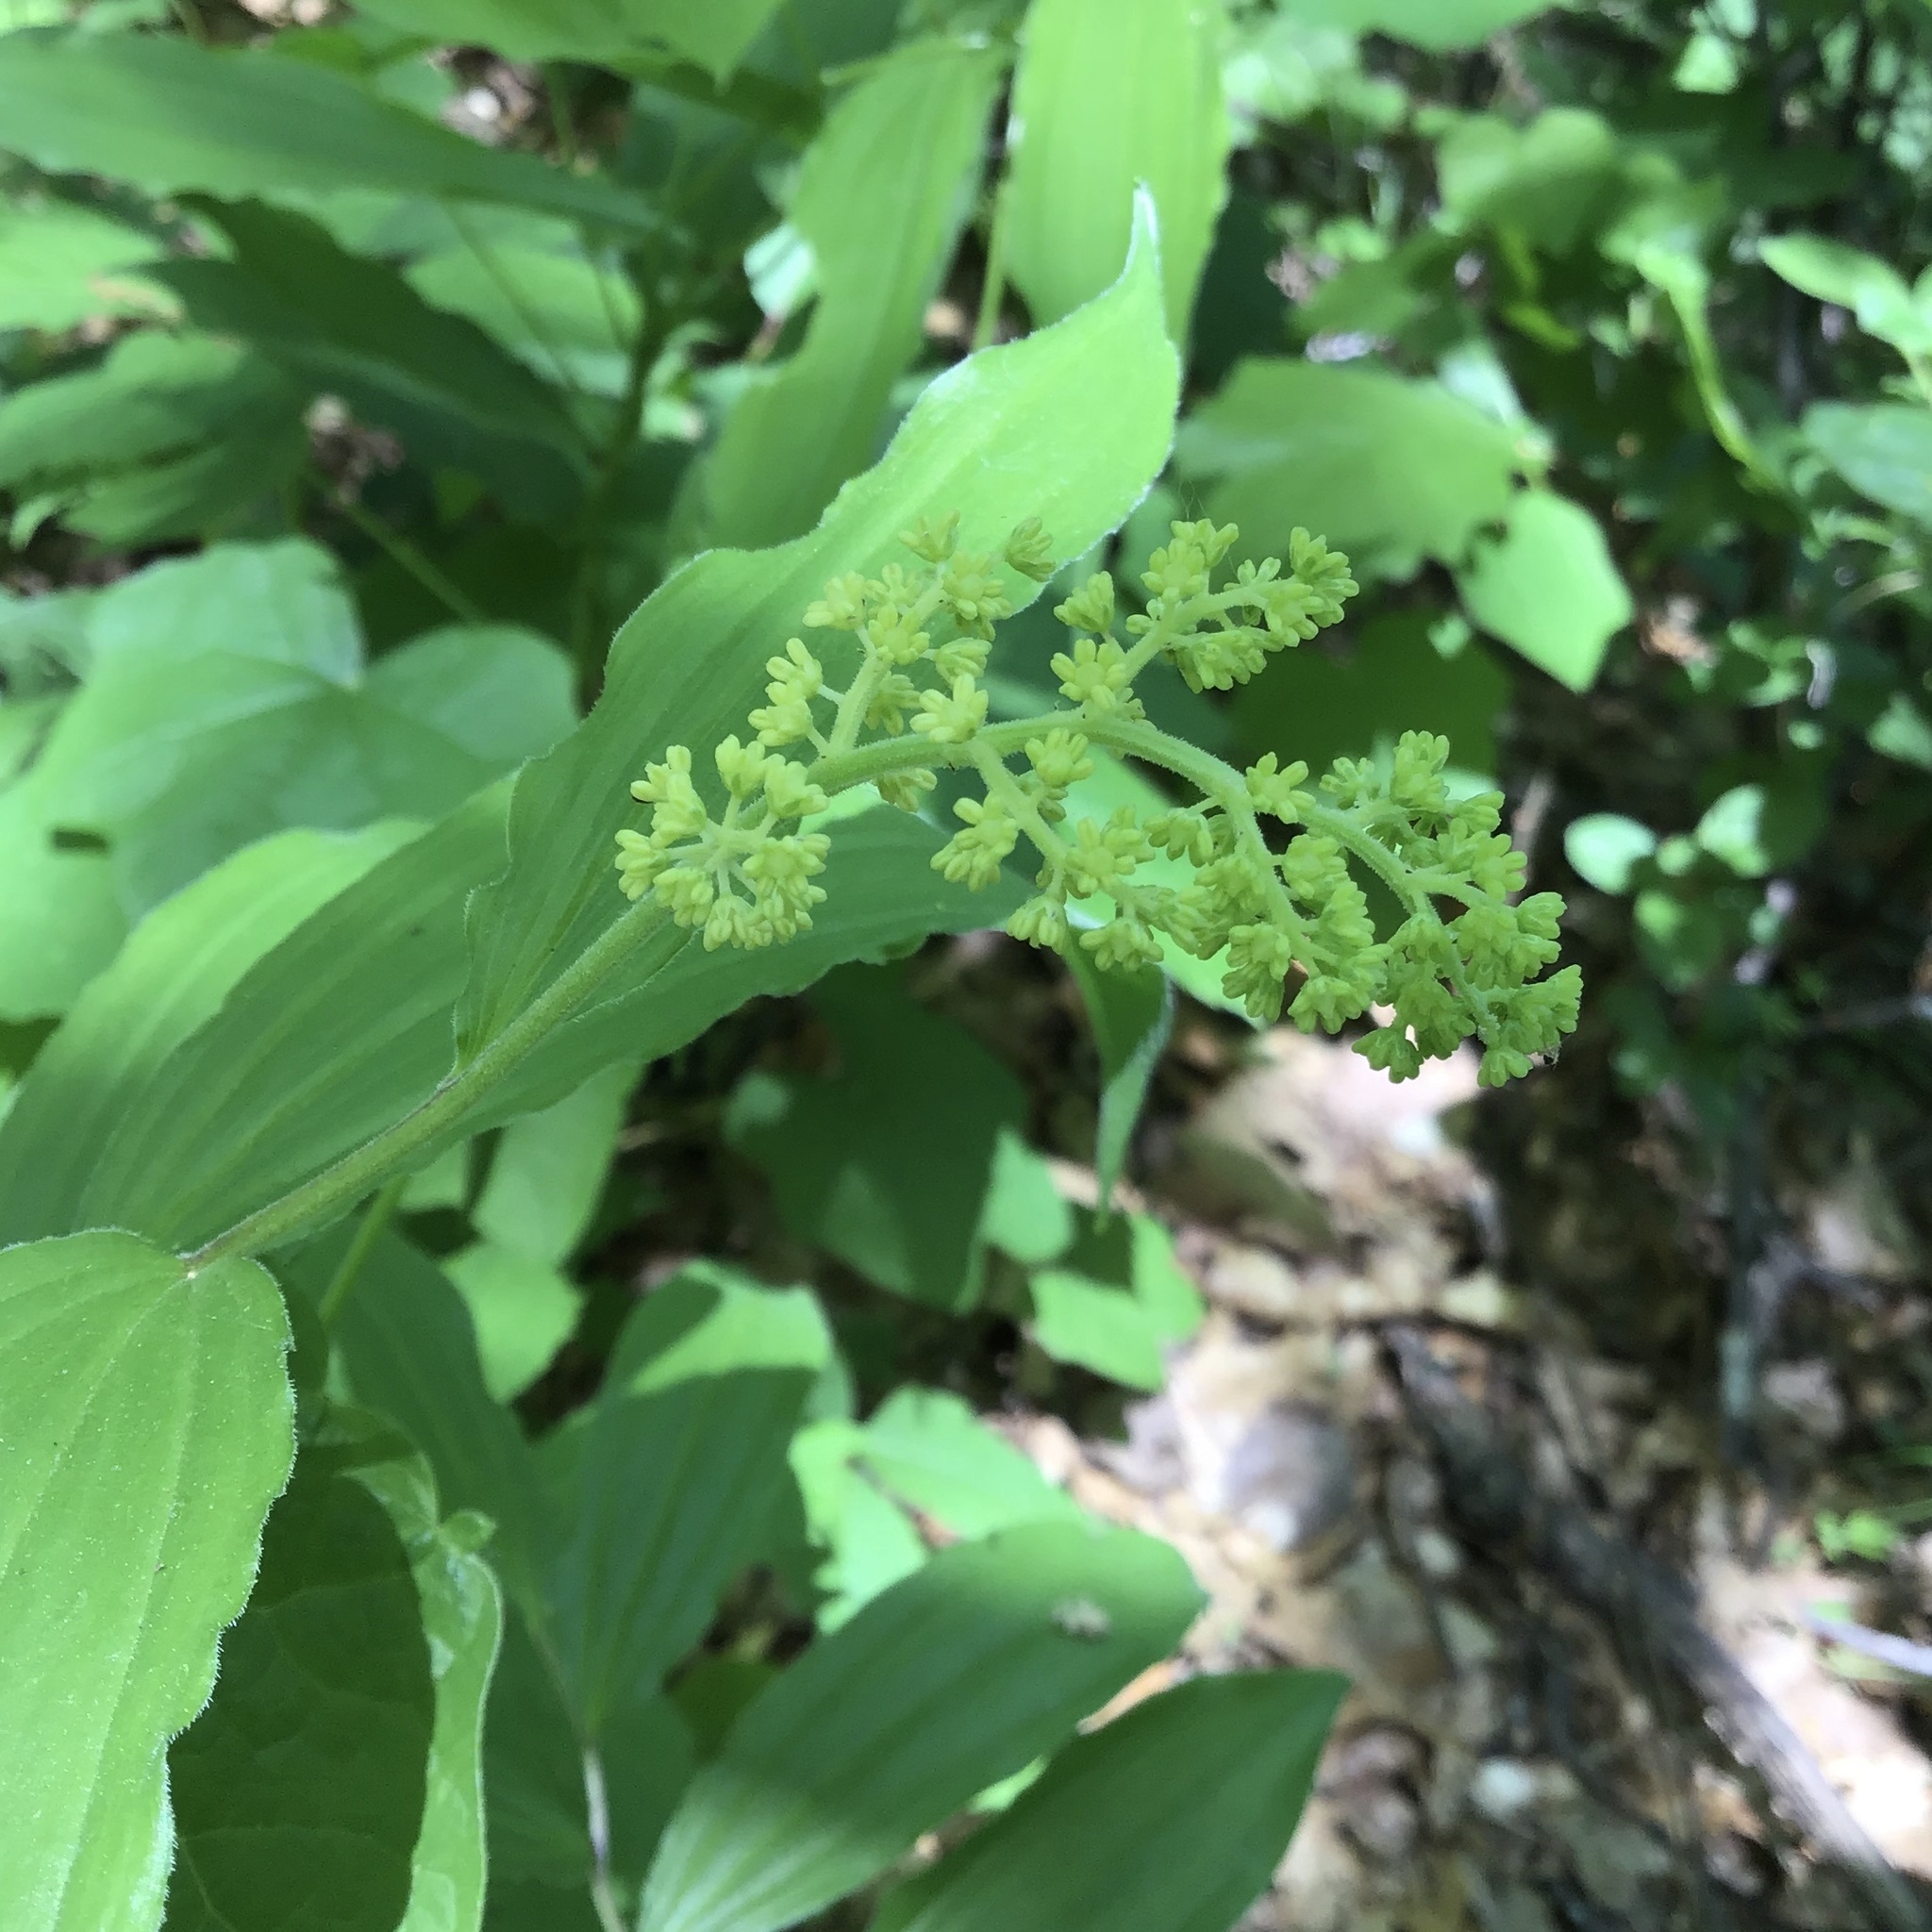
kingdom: Plantae
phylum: Tracheophyta
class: Liliopsida
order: Asparagales
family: Asparagaceae
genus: Maianthemum
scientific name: Maianthemum racemosum
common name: False spikenard
